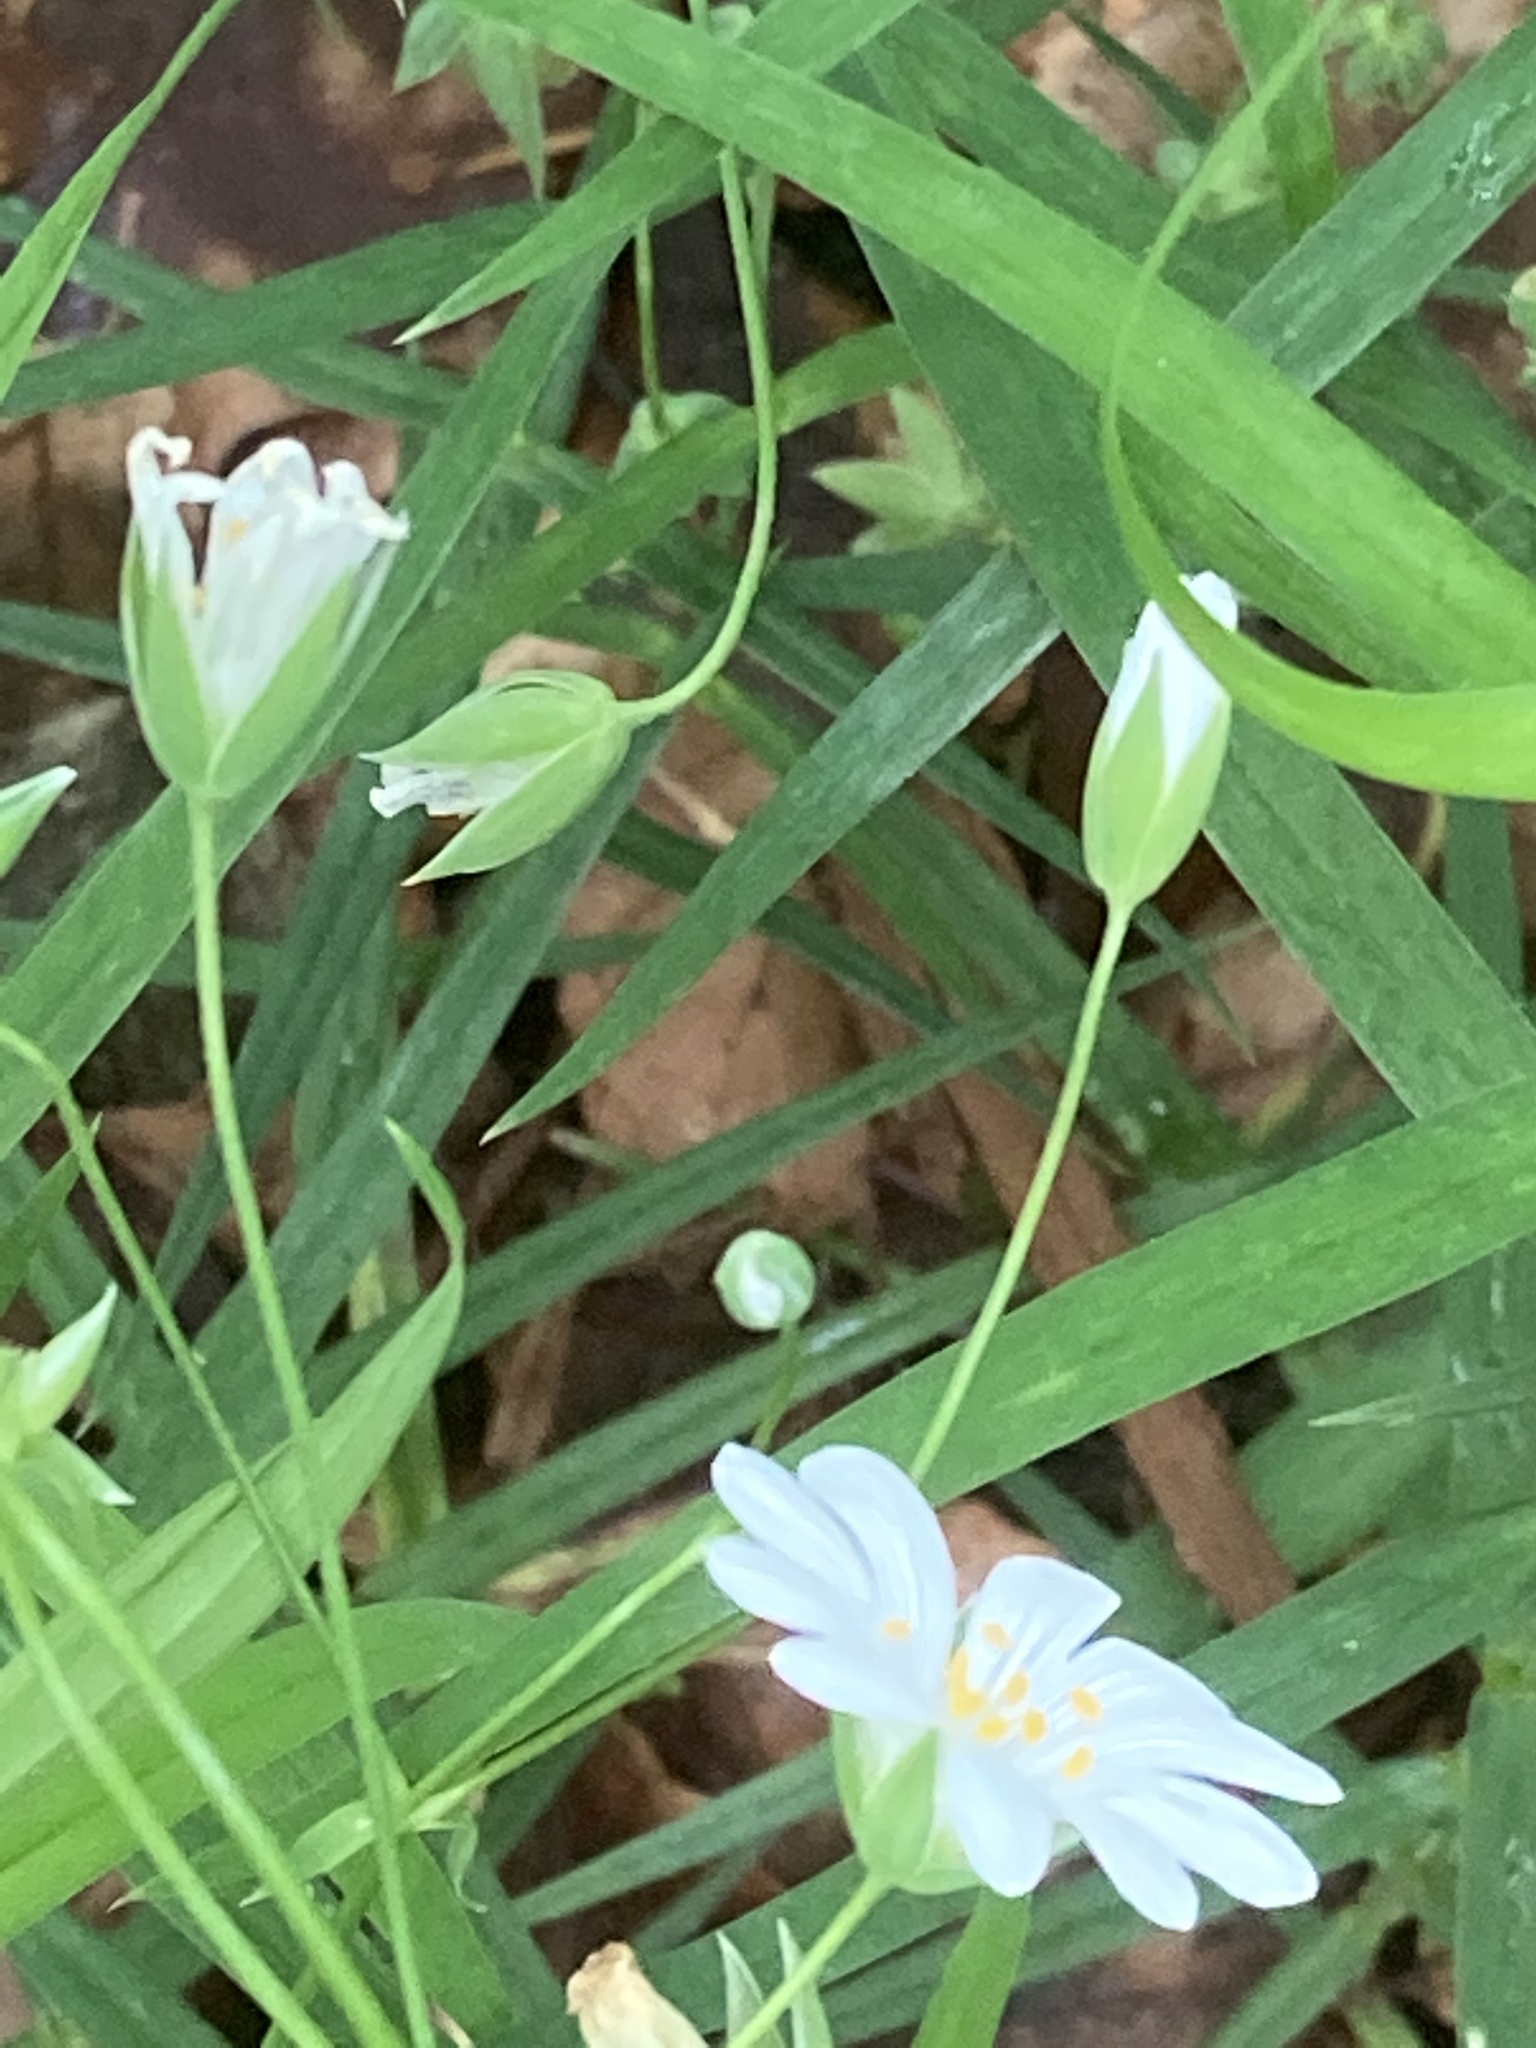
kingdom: Plantae
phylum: Tracheophyta
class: Magnoliopsida
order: Caryophyllales
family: Caryophyllaceae
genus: Rabelera
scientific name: Rabelera holostea
